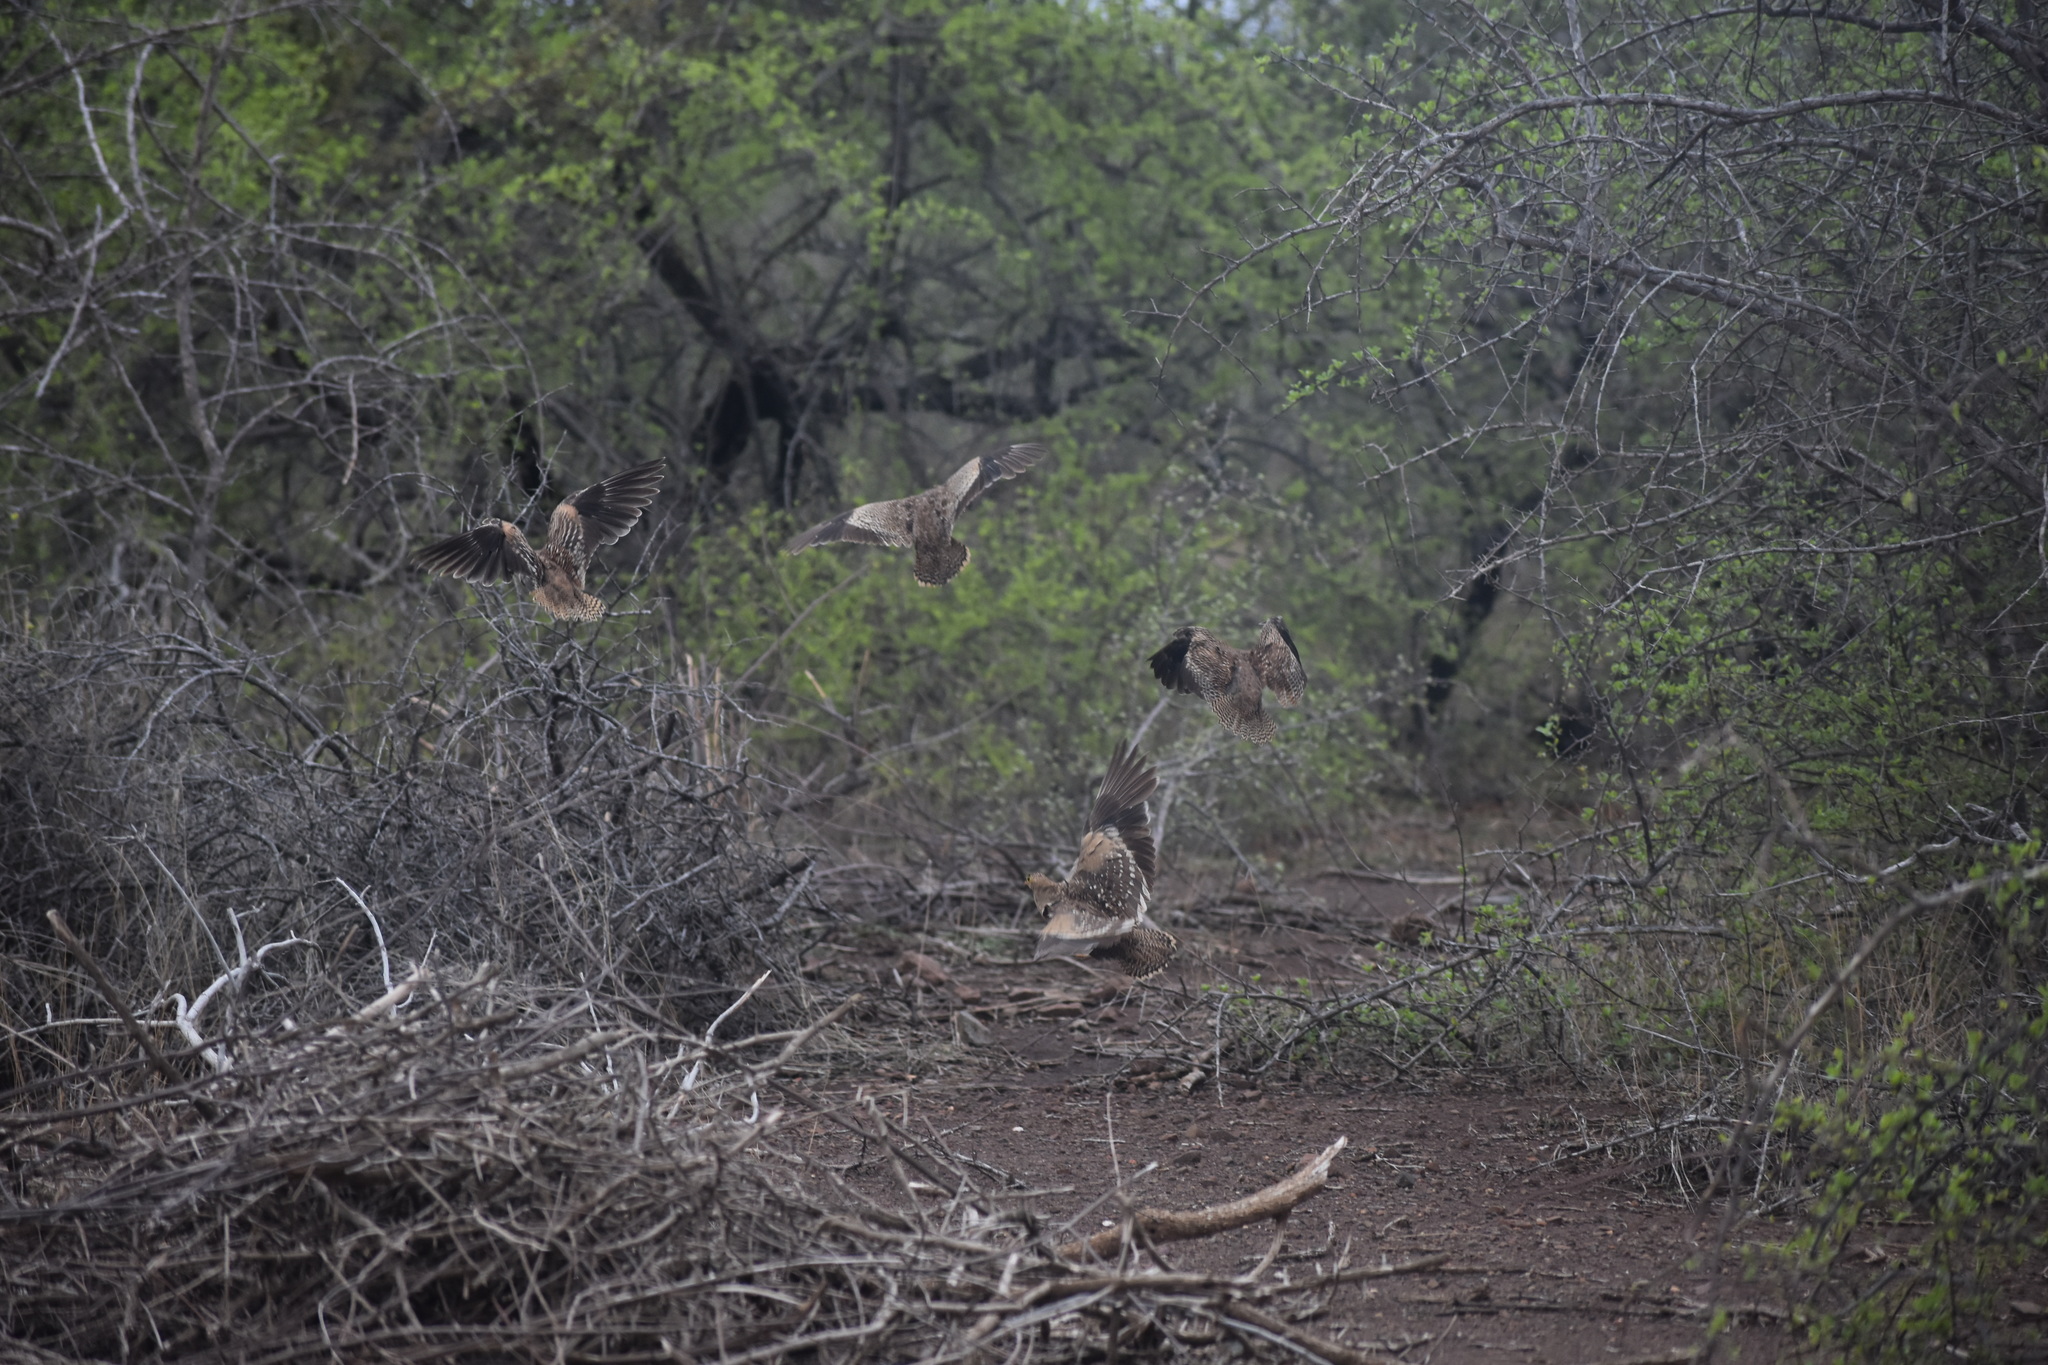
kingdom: Animalia
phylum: Chordata
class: Aves
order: Pteroclidiformes
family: Pteroclididae
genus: Pterocles
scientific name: Pterocles bicinctus
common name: Double-banded sandgrouse
